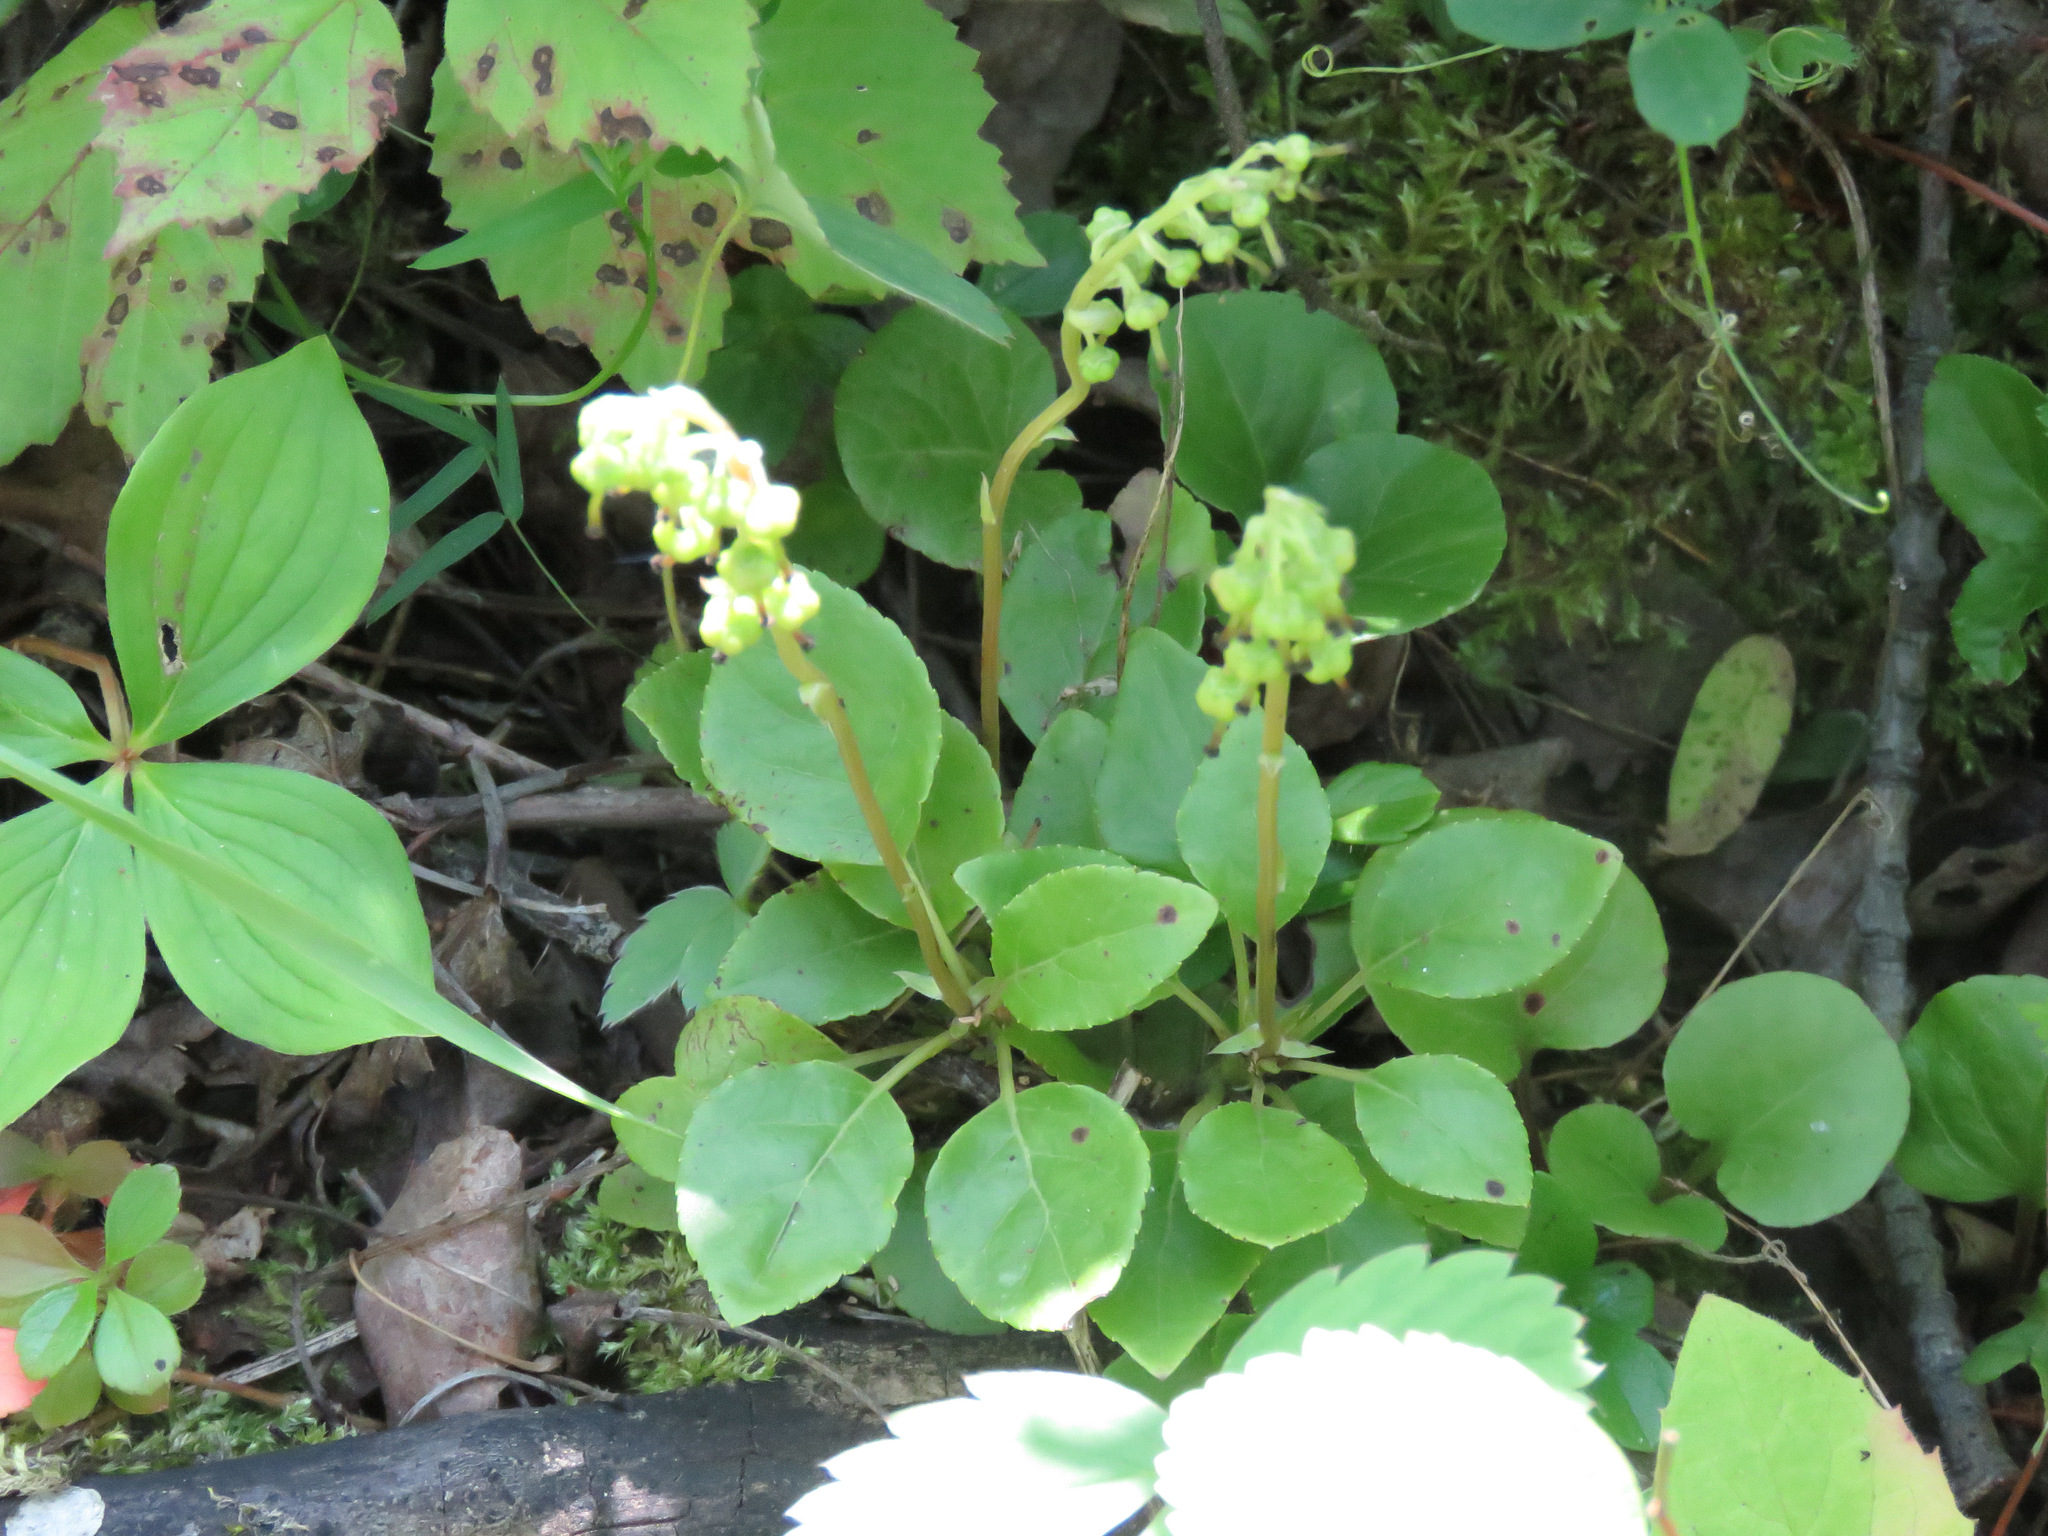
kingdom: Plantae
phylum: Tracheophyta
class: Magnoliopsida
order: Ericales
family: Ericaceae
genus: Orthilia
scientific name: Orthilia secunda
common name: One-sided orthilia
